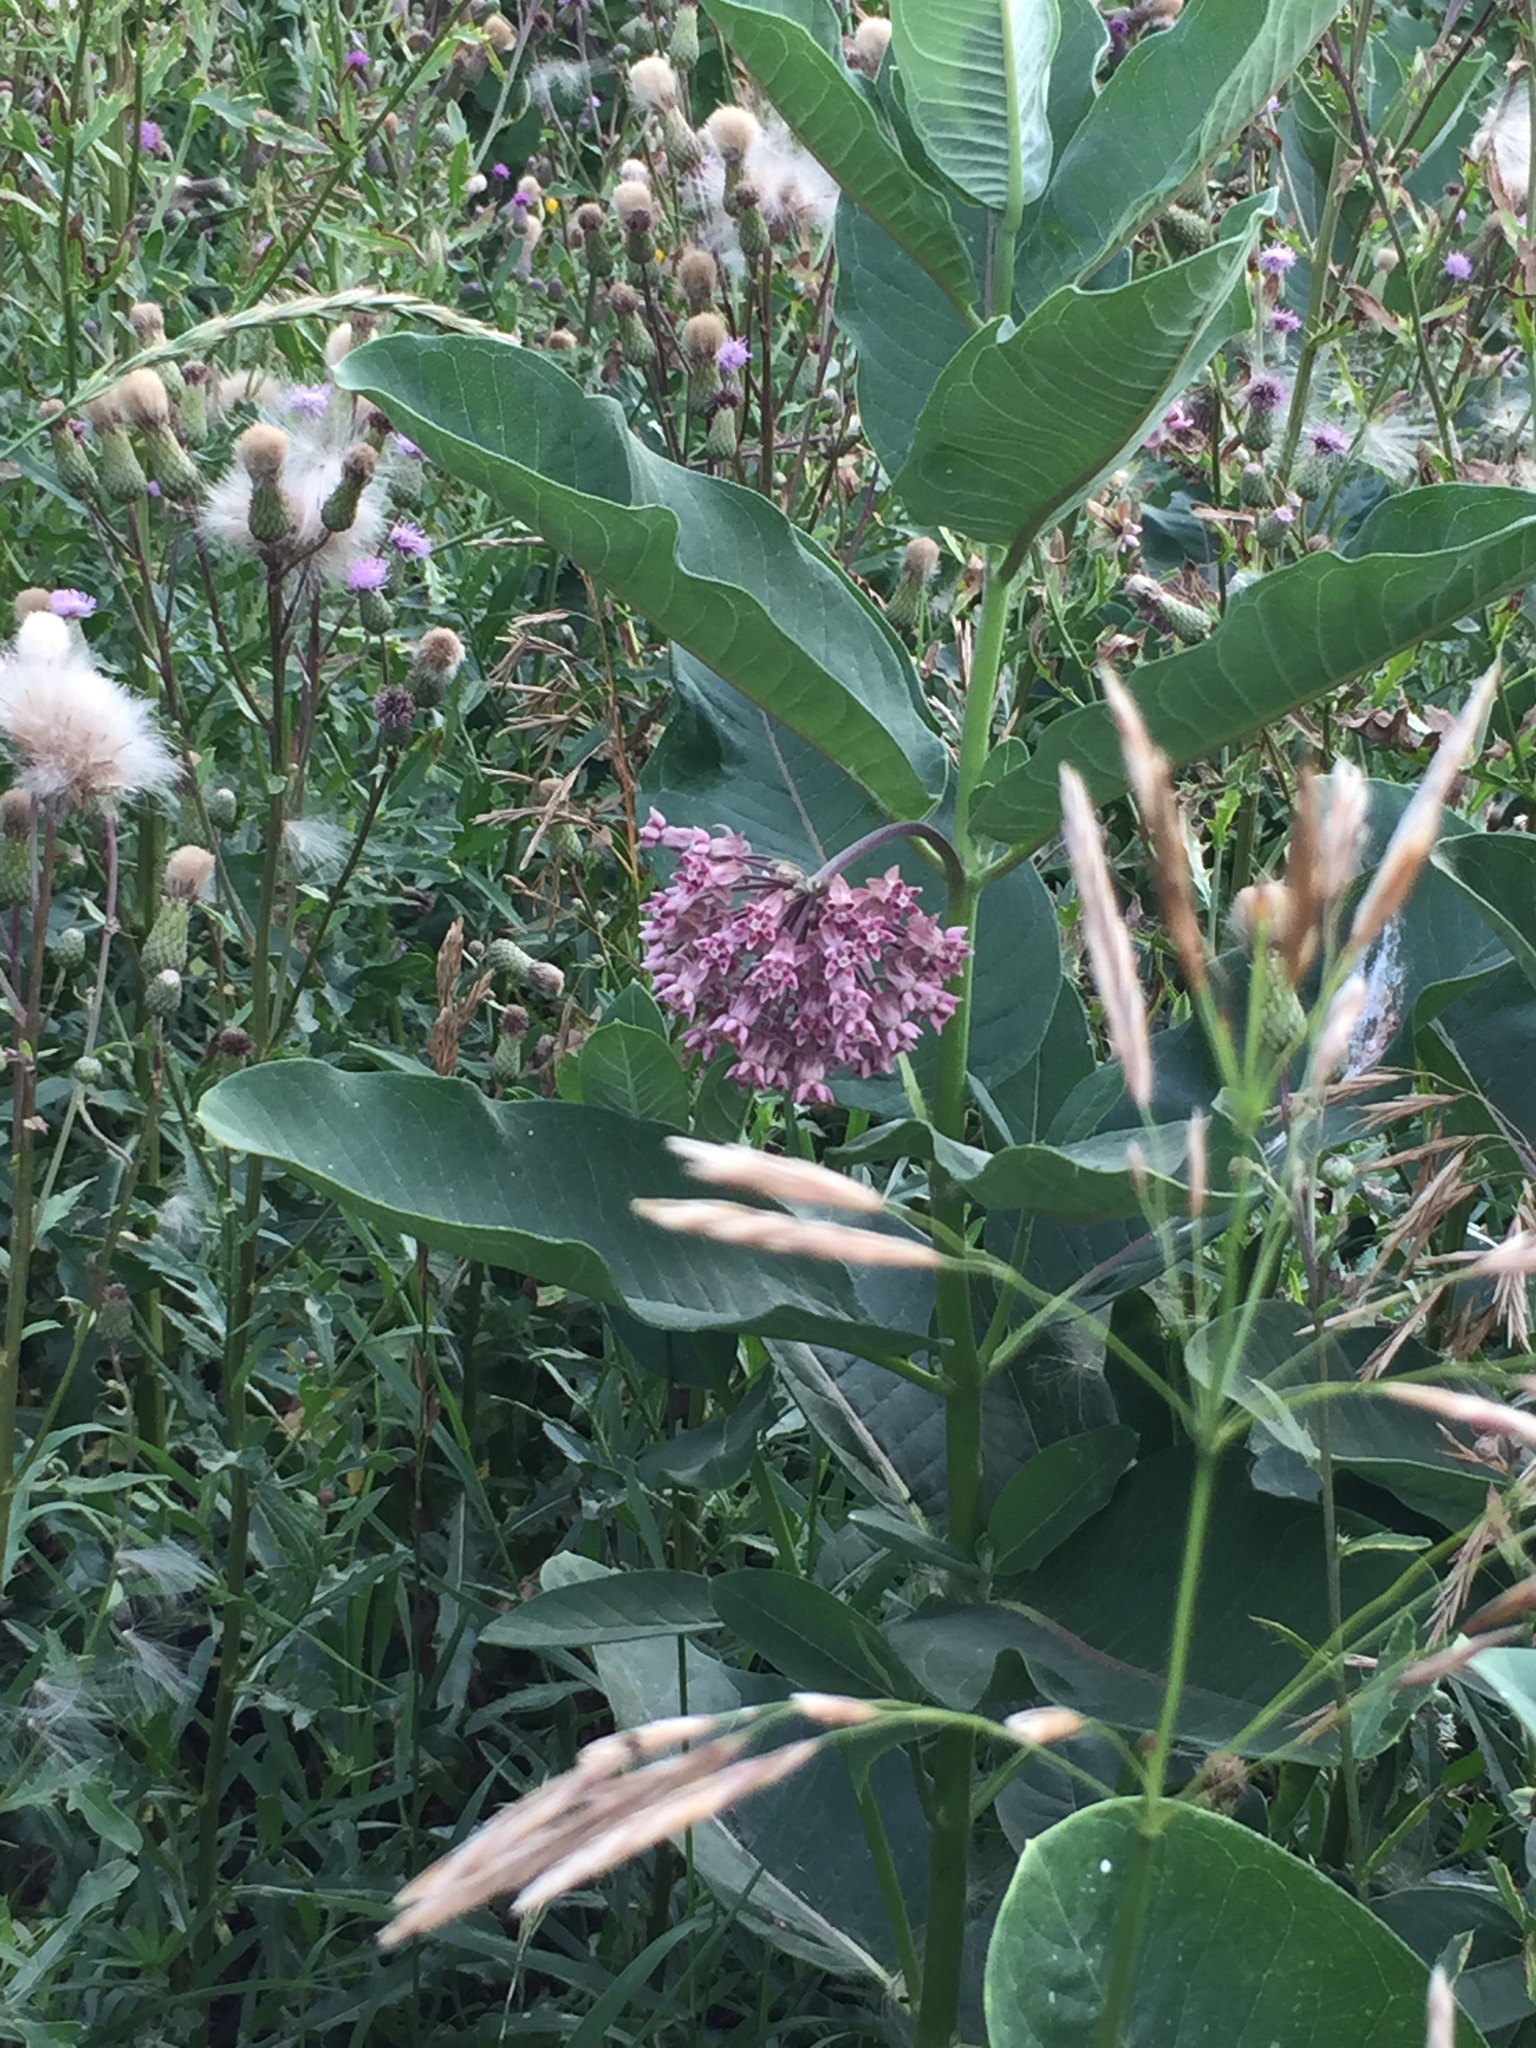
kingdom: Plantae
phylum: Tracheophyta
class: Magnoliopsida
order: Gentianales
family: Apocynaceae
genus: Asclepias
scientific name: Asclepias syriaca
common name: Common milkweed
